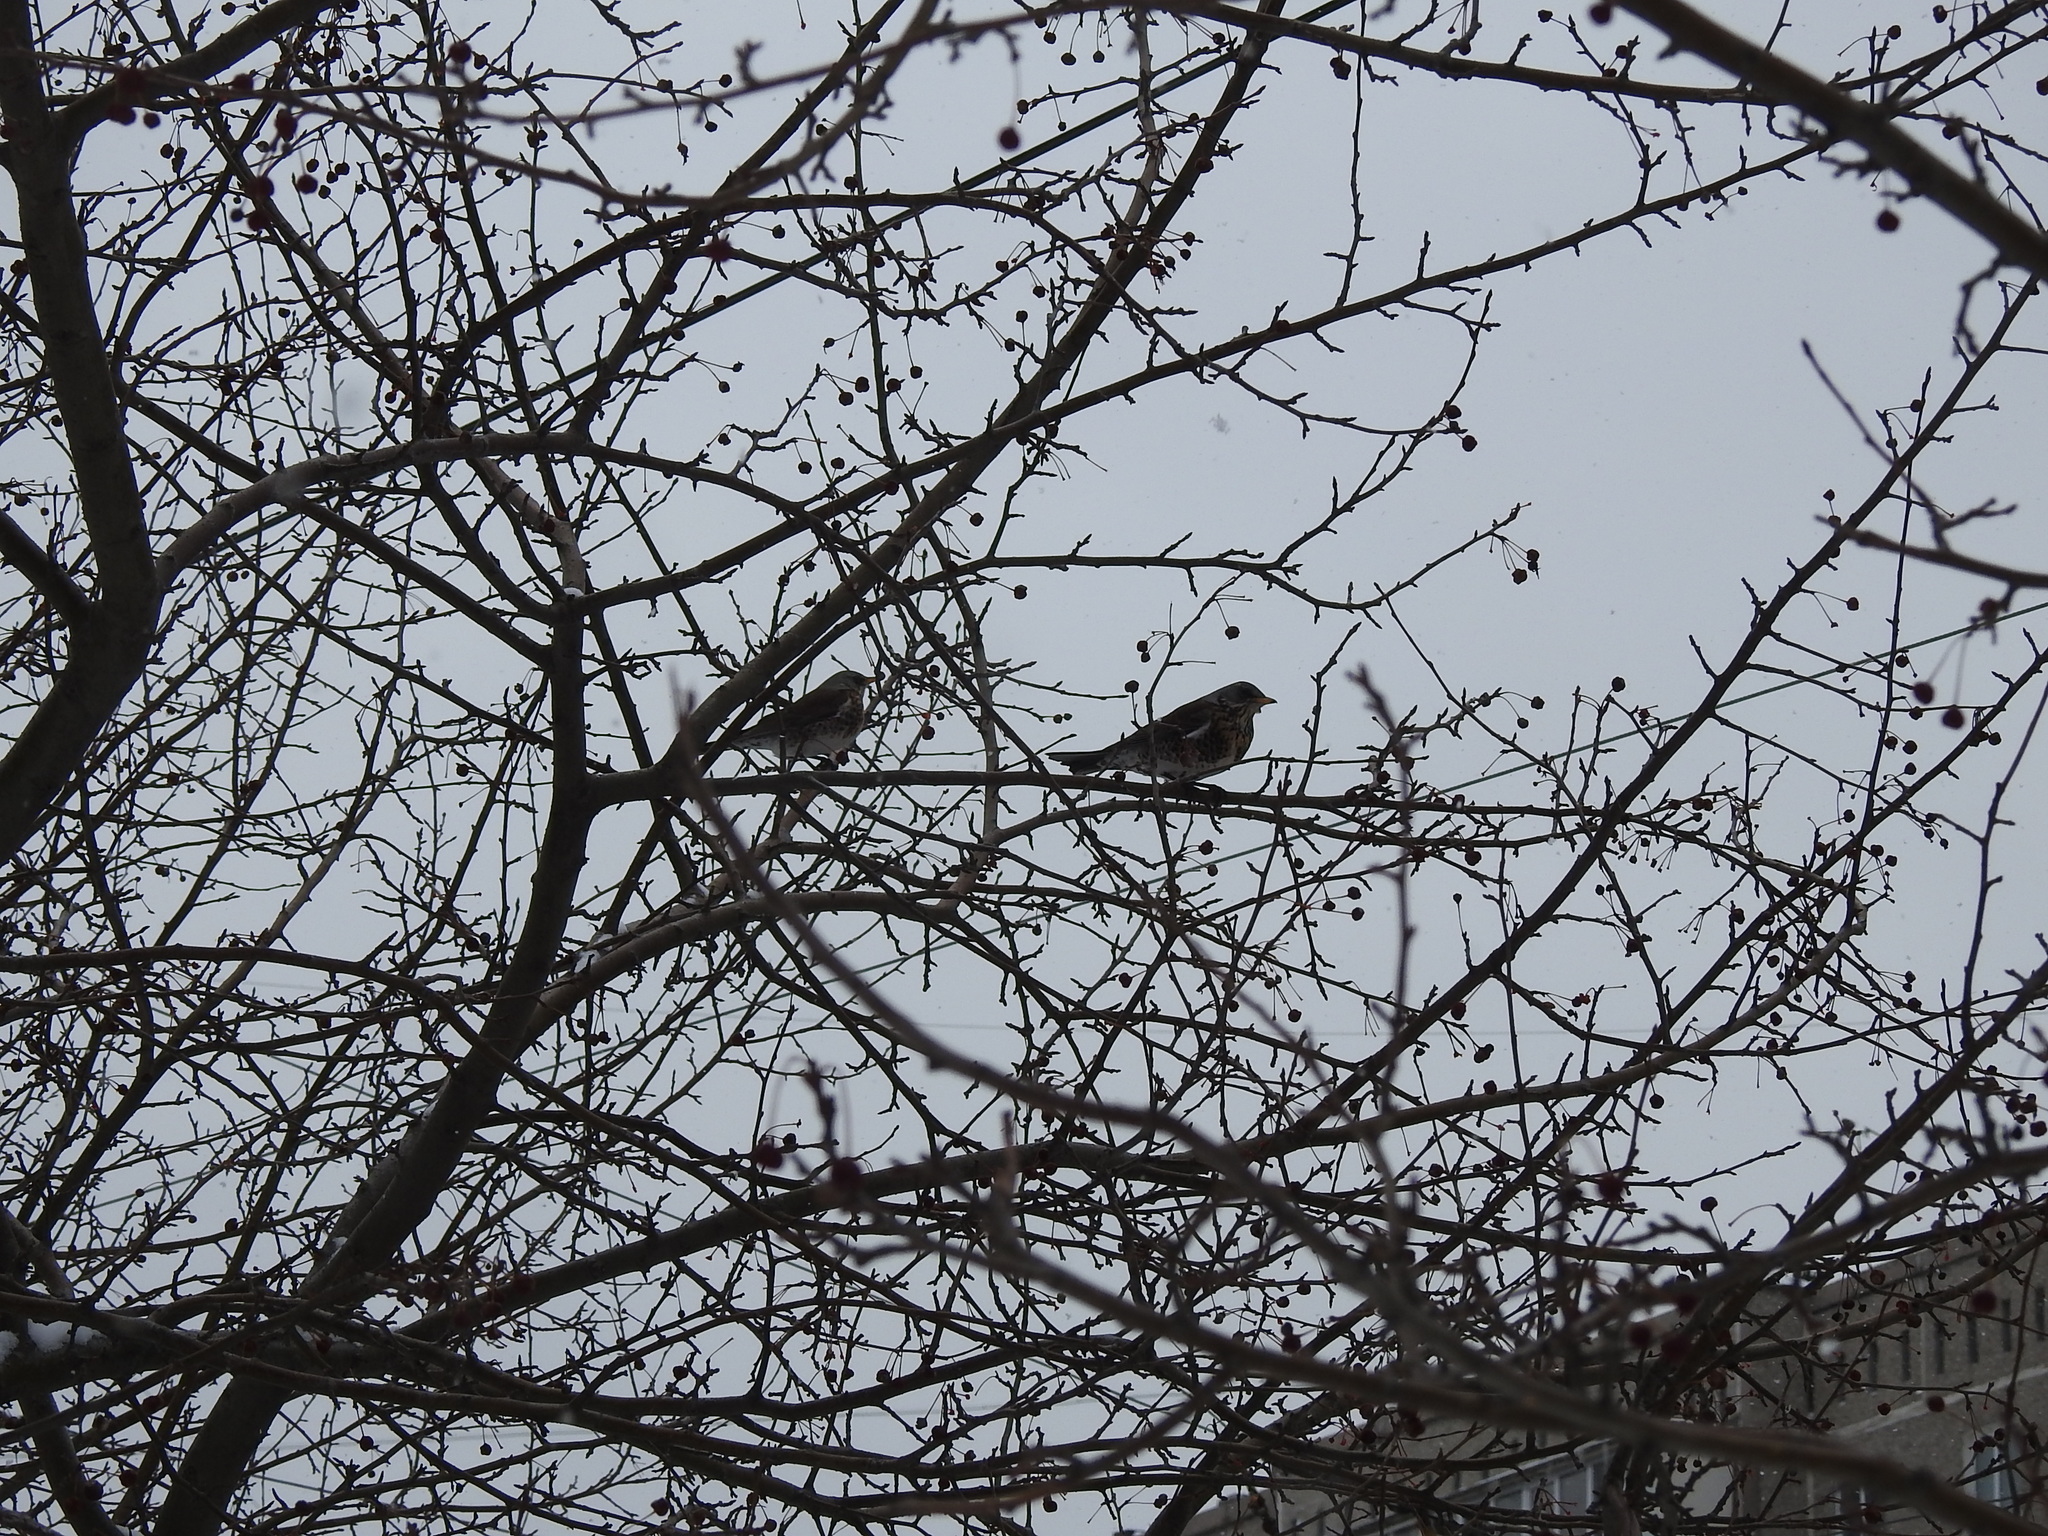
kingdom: Animalia
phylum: Chordata
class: Aves
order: Passeriformes
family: Turdidae
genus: Turdus
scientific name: Turdus pilaris
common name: Fieldfare
